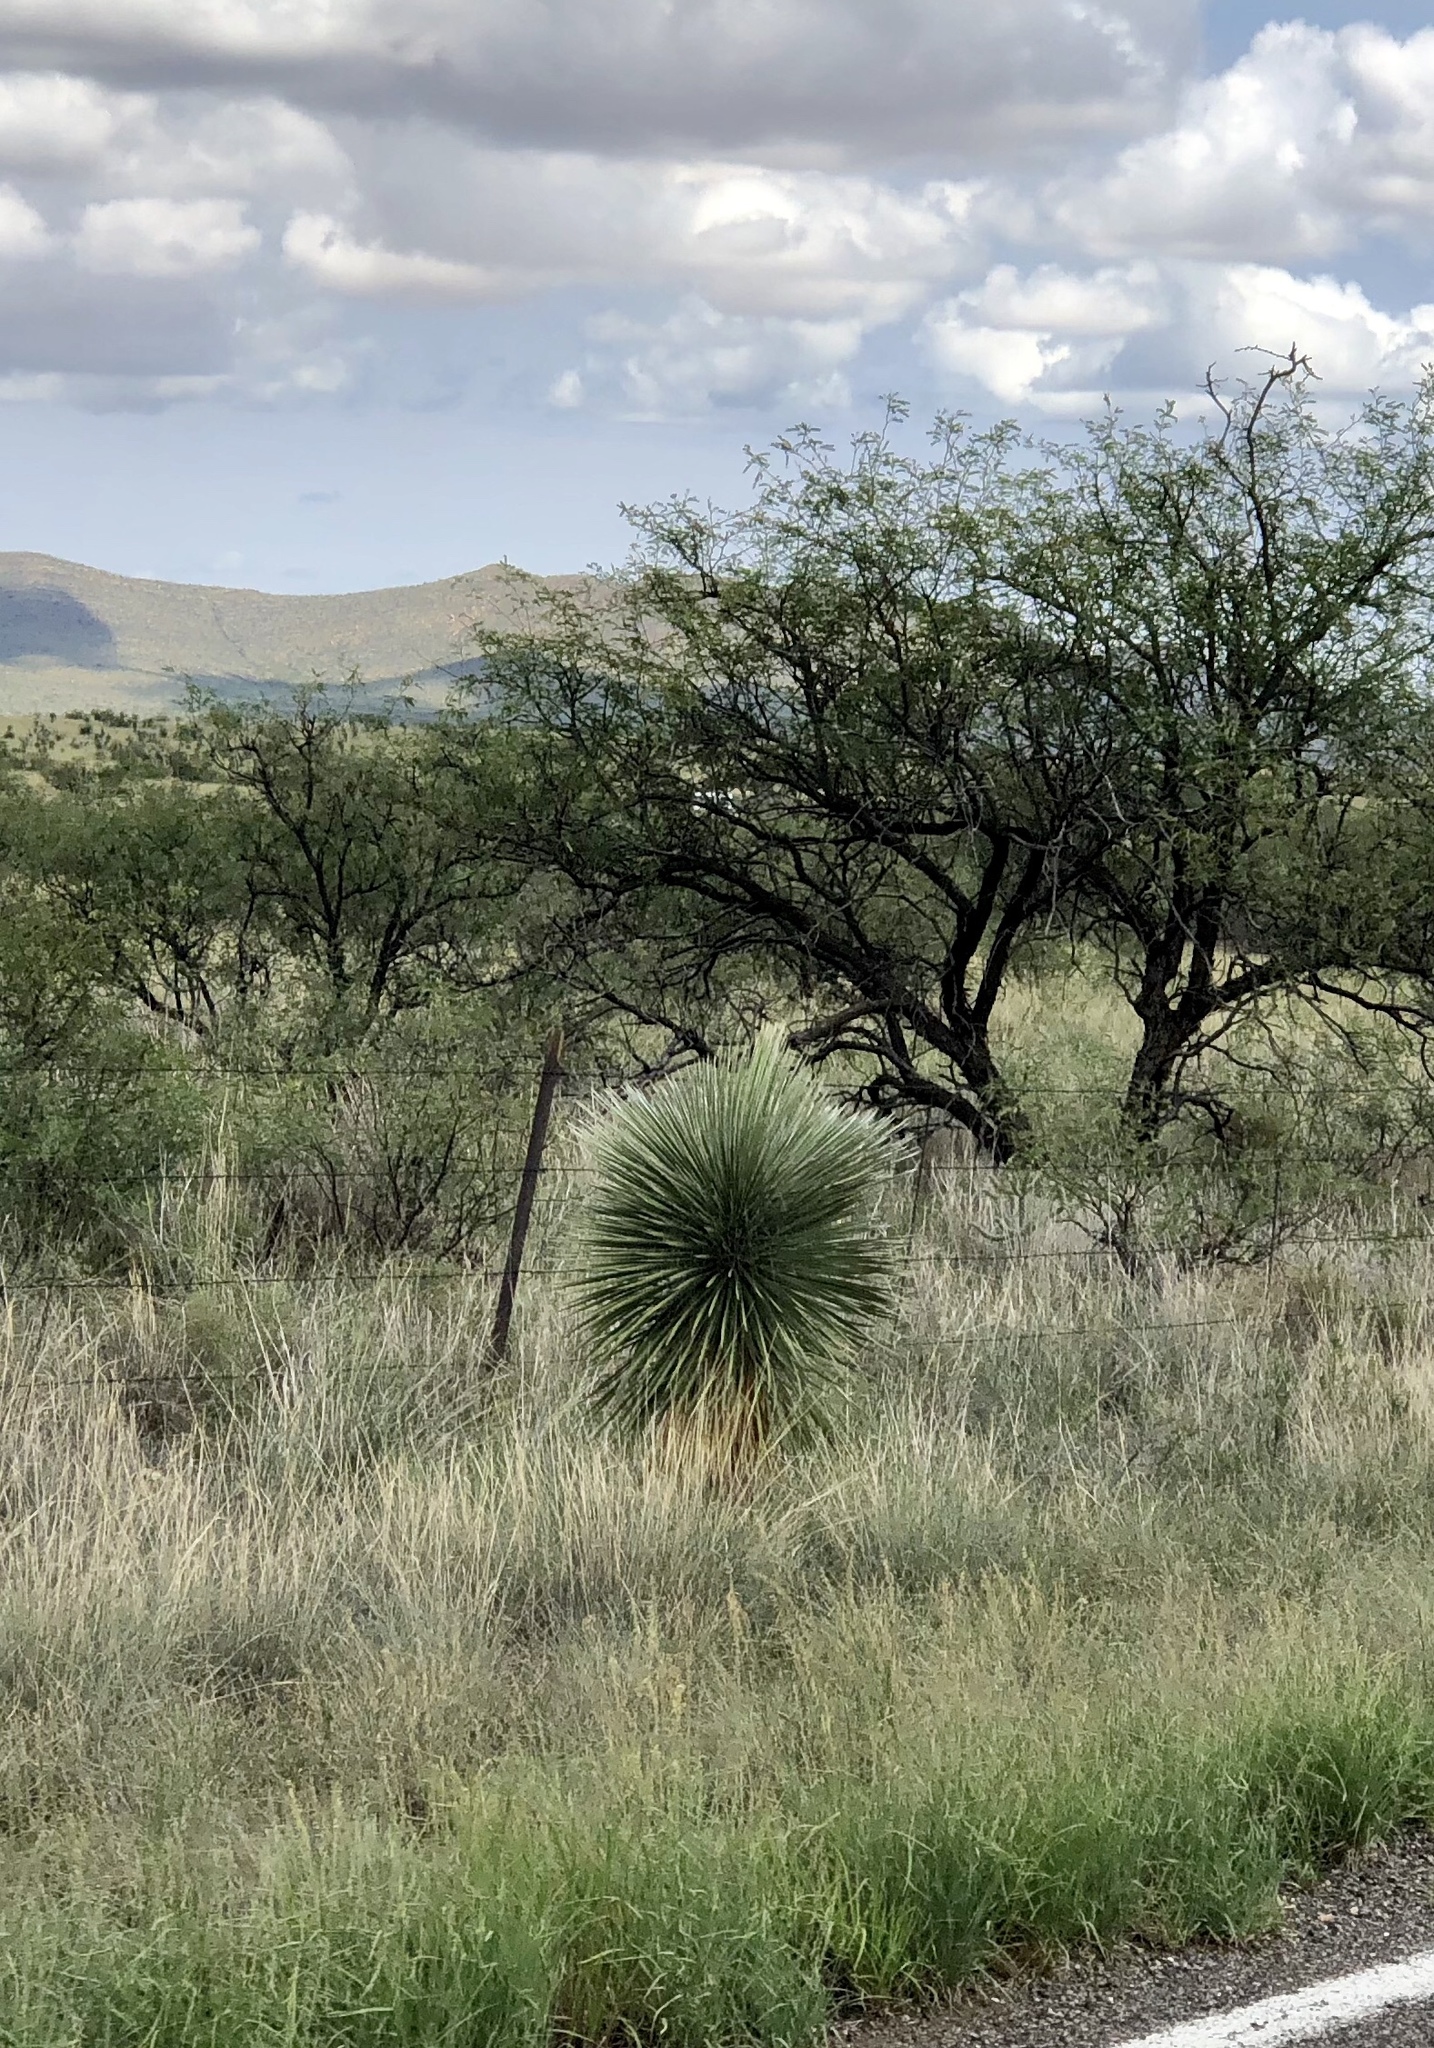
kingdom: Plantae
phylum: Tracheophyta
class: Liliopsida
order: Asparagales
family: Asparagaceae
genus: Yucca
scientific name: Yucca elata
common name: Palmella
